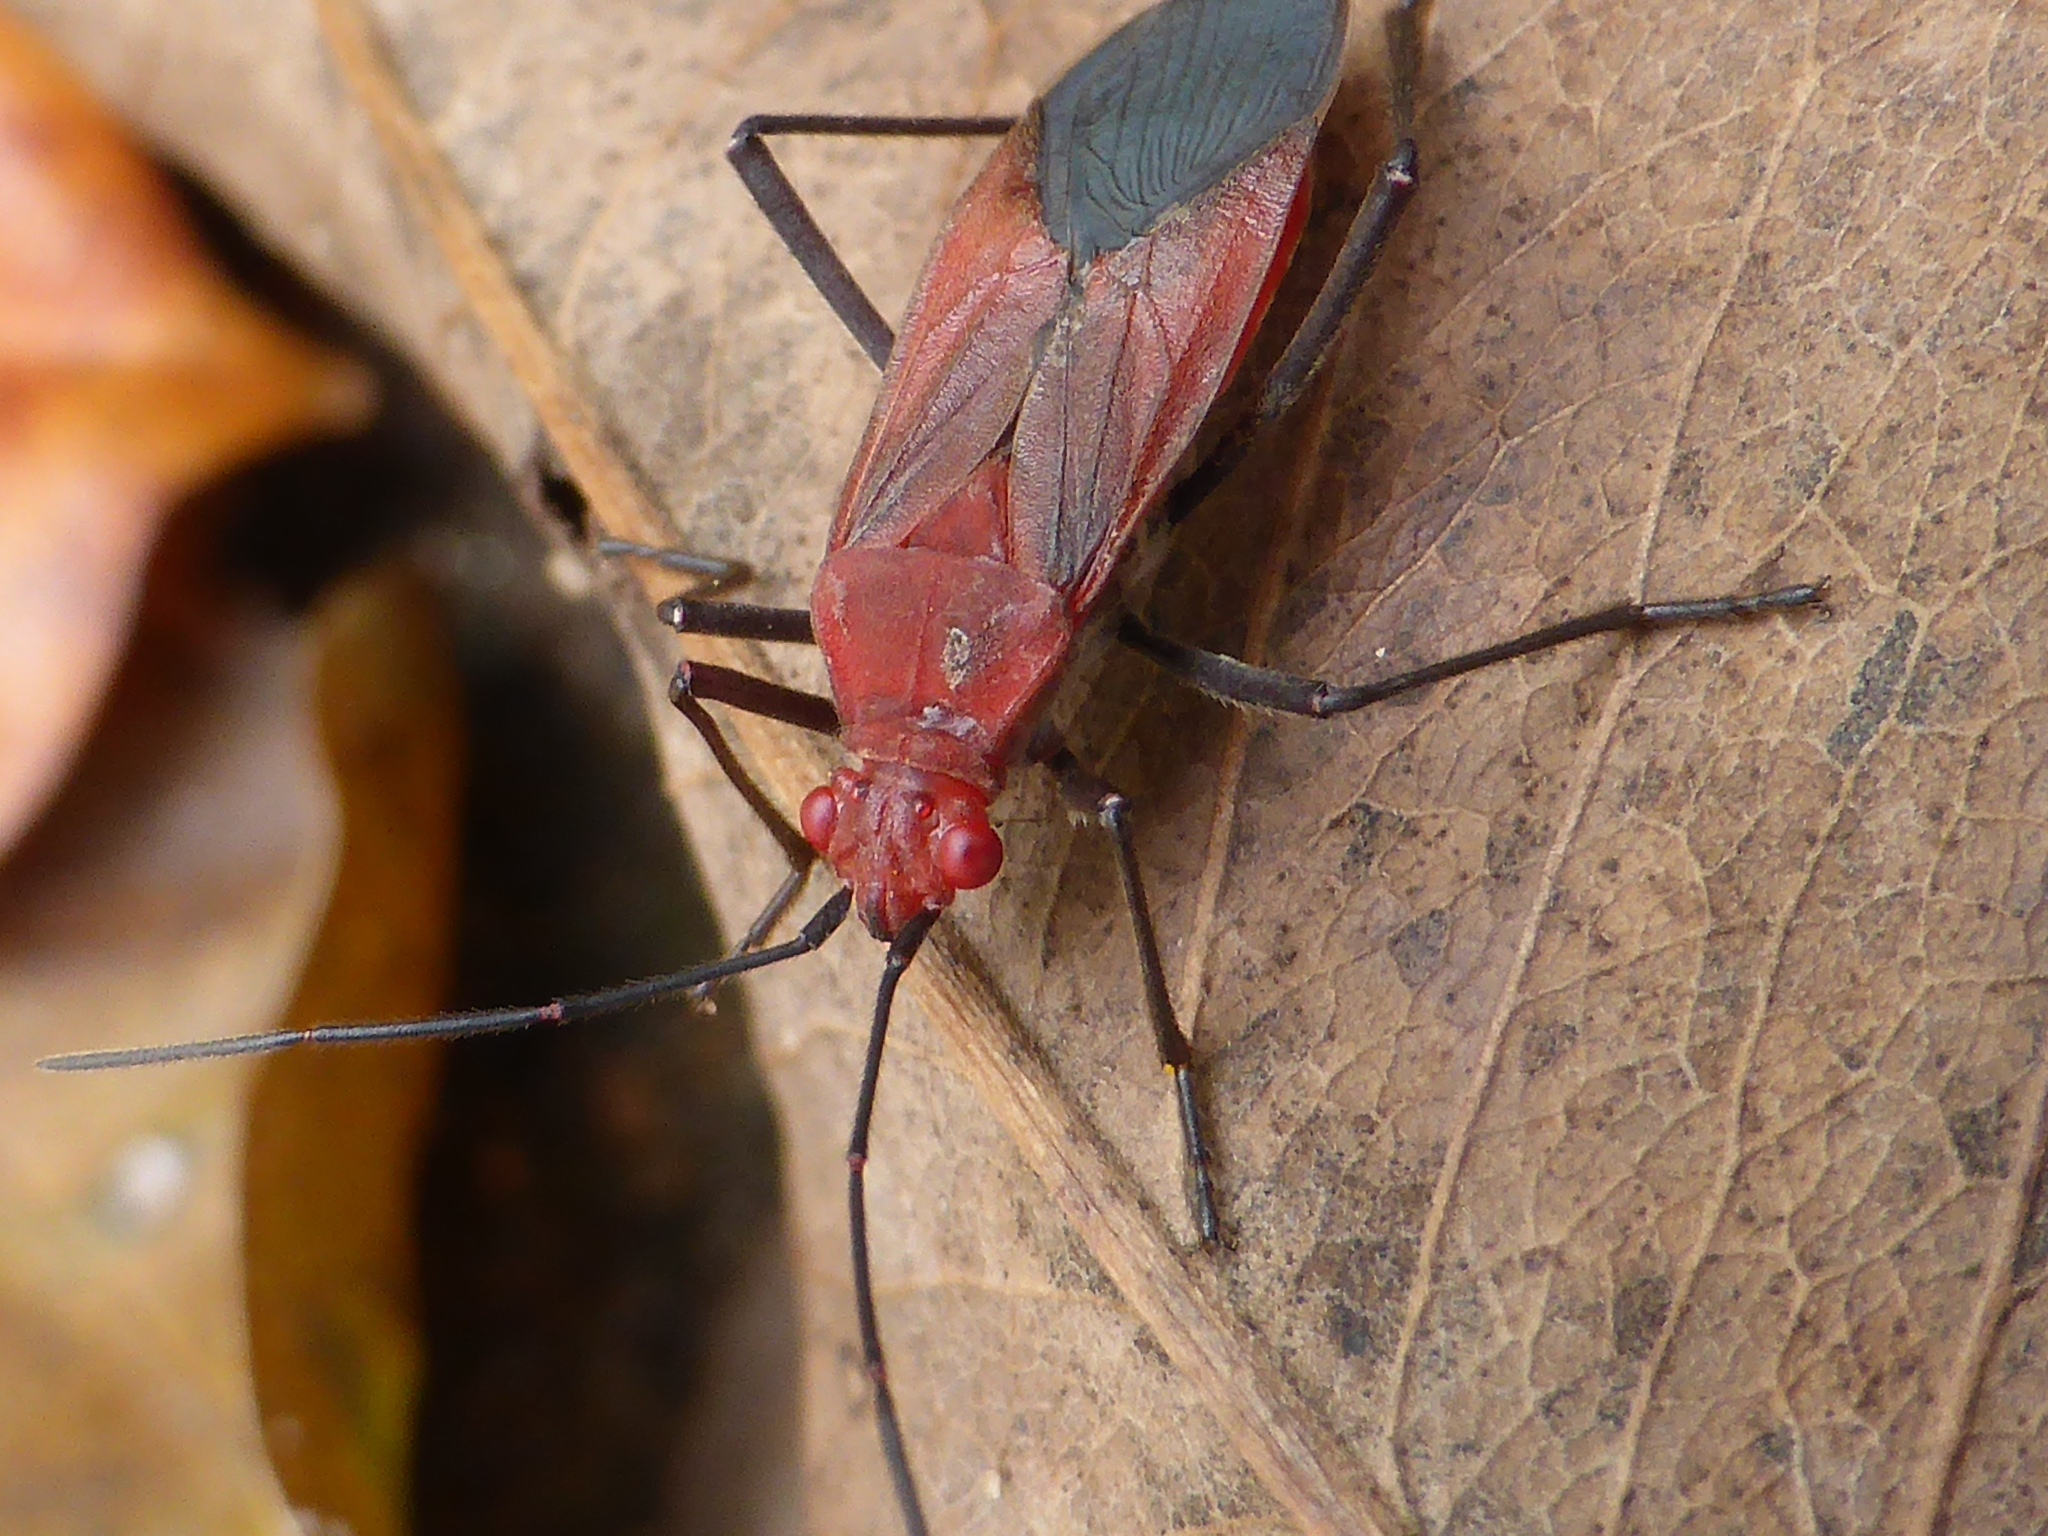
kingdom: Animalia
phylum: Arthropoda
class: Insecta
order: Hemiptera
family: Rhopalidae
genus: Leptocoris
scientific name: Leptocoris vicinus
